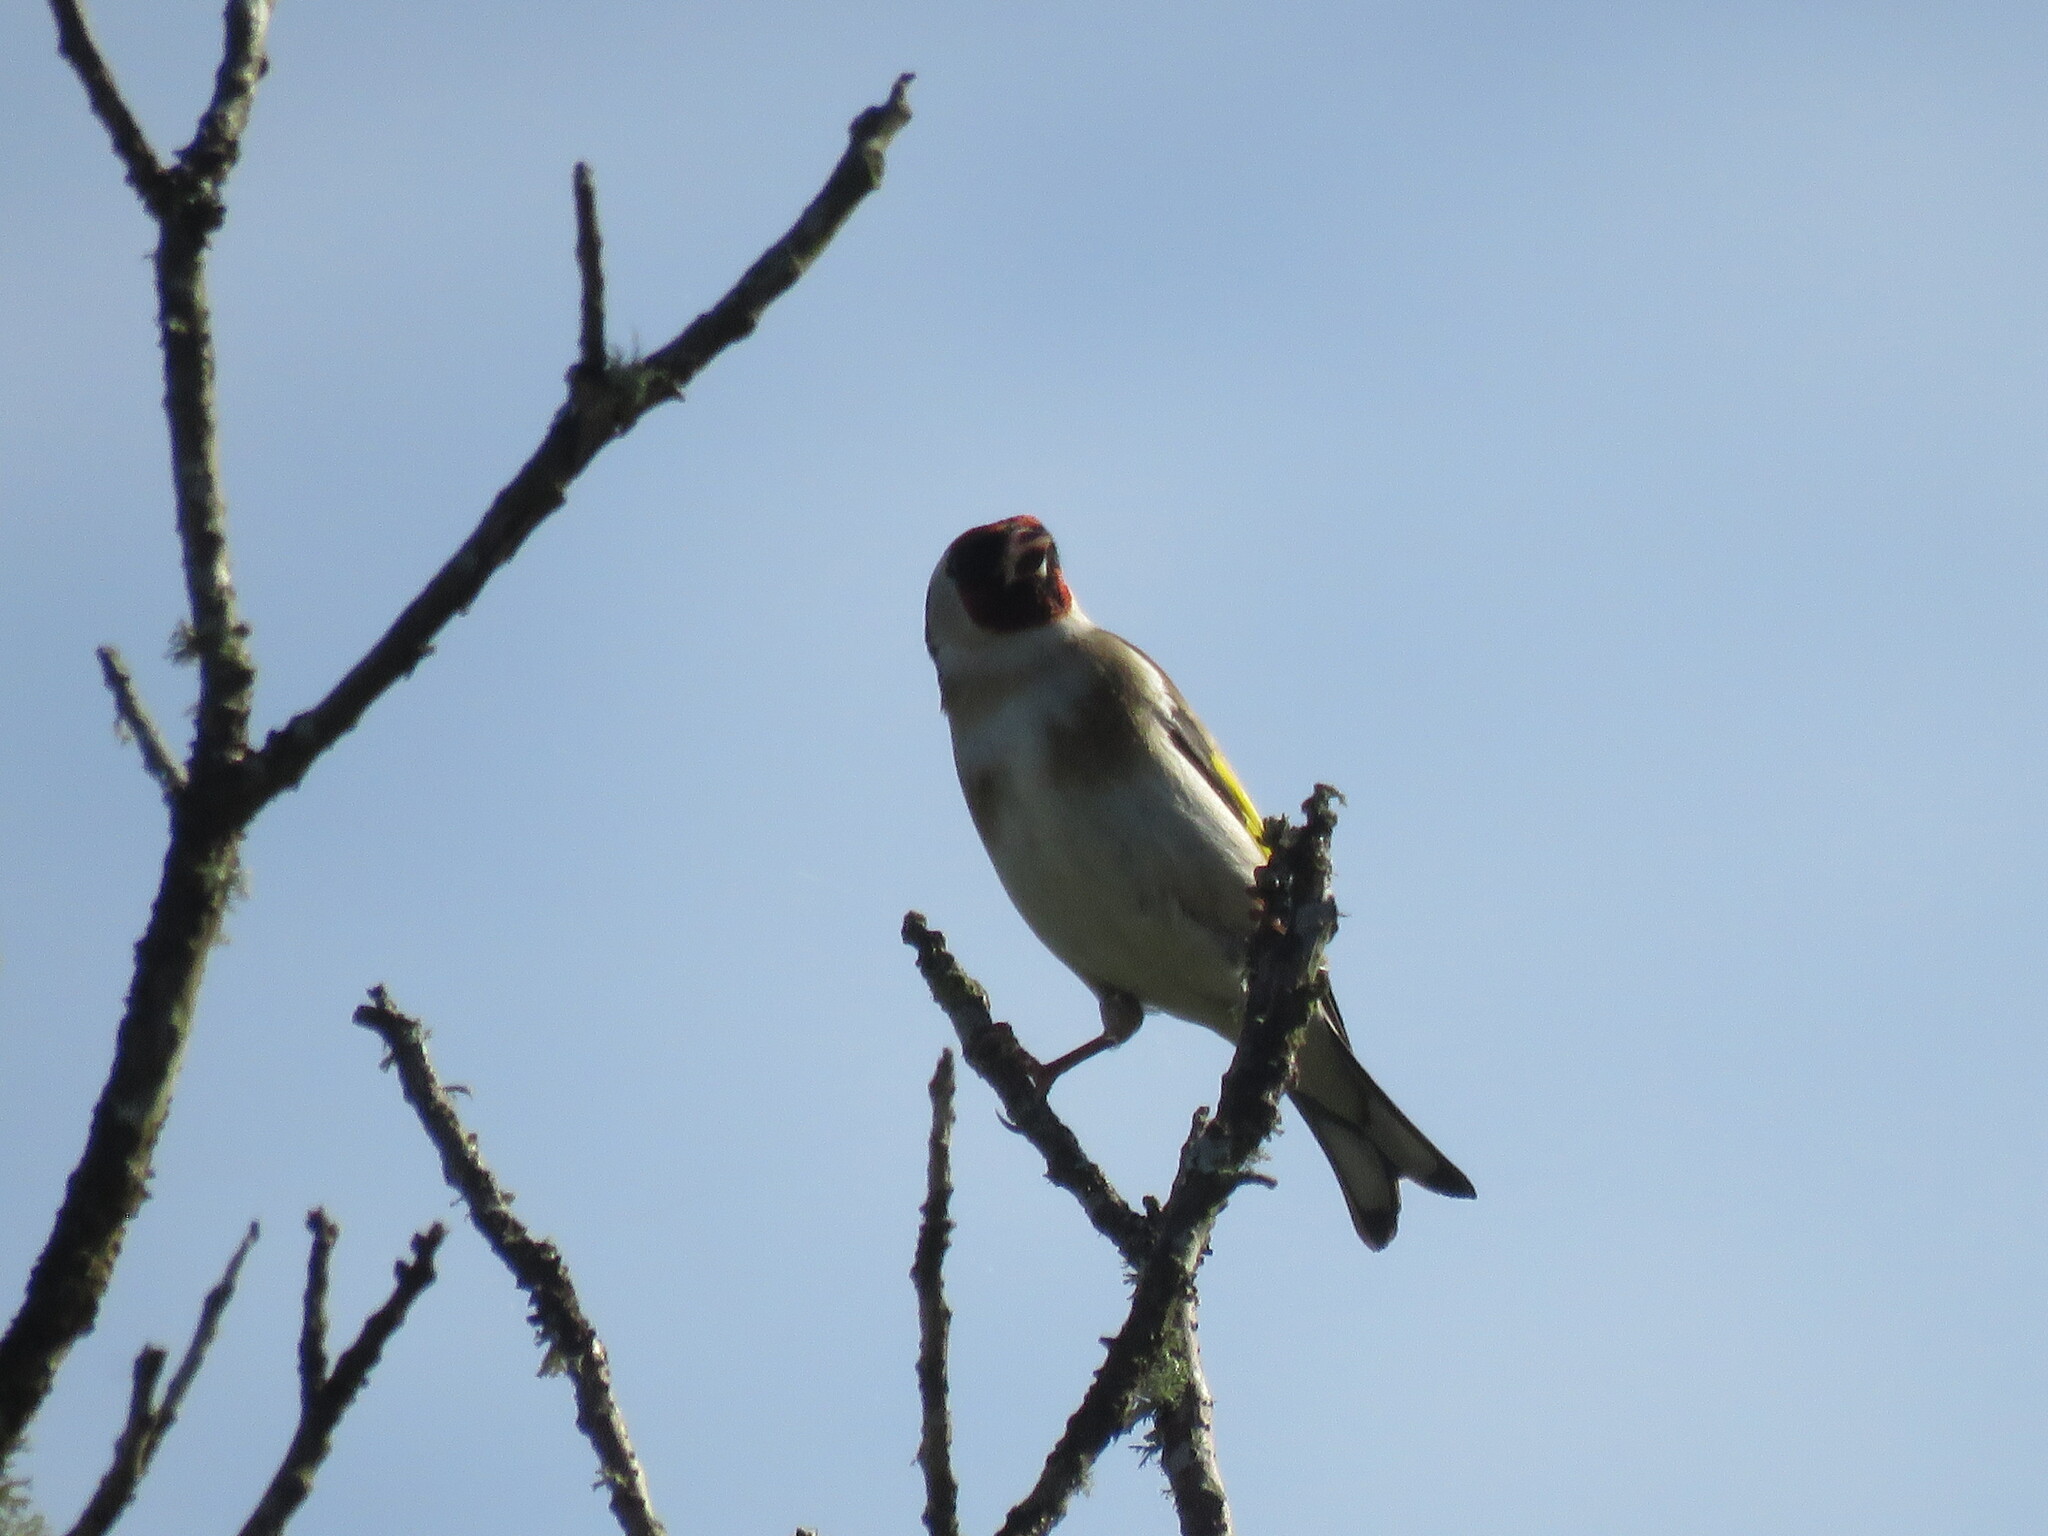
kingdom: Animalia
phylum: Chordata
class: Aves
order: Passeriformes
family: Fringillidae
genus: Carduelis
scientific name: Carduelis carduelis
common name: European goldfinch
